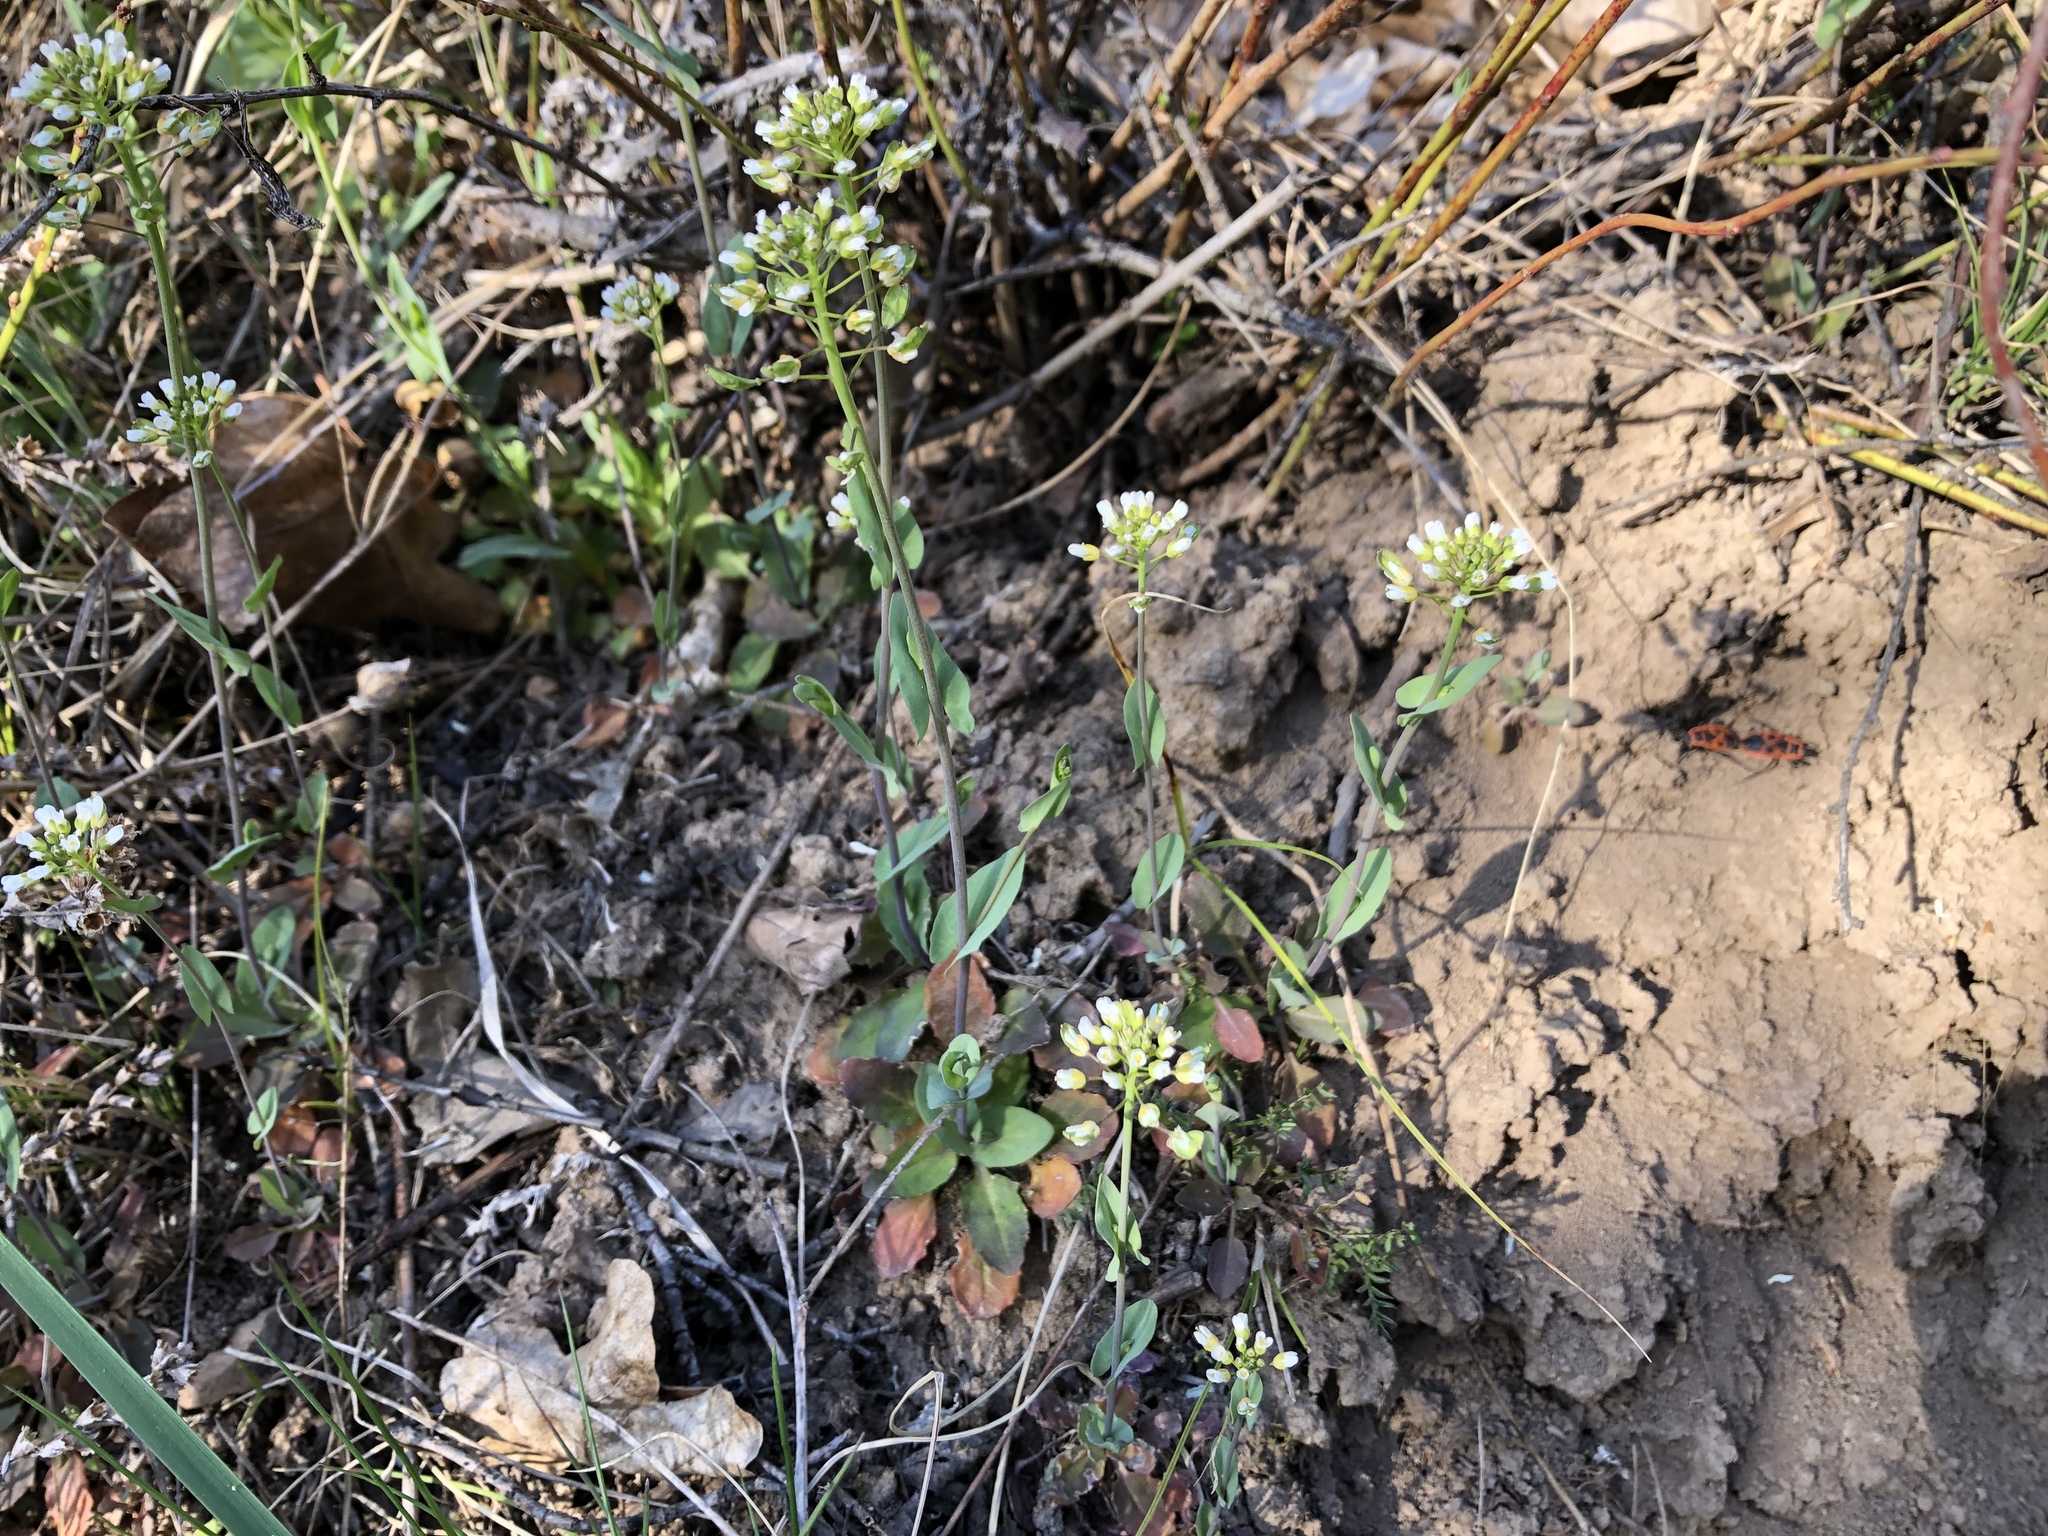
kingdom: Plantae
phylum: Tracheophyta
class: Magnoliopsida
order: Brassicales
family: Brassicaceae
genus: Noccaea
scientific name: Noccaea perfoliata
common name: Perfoliate pennycress
